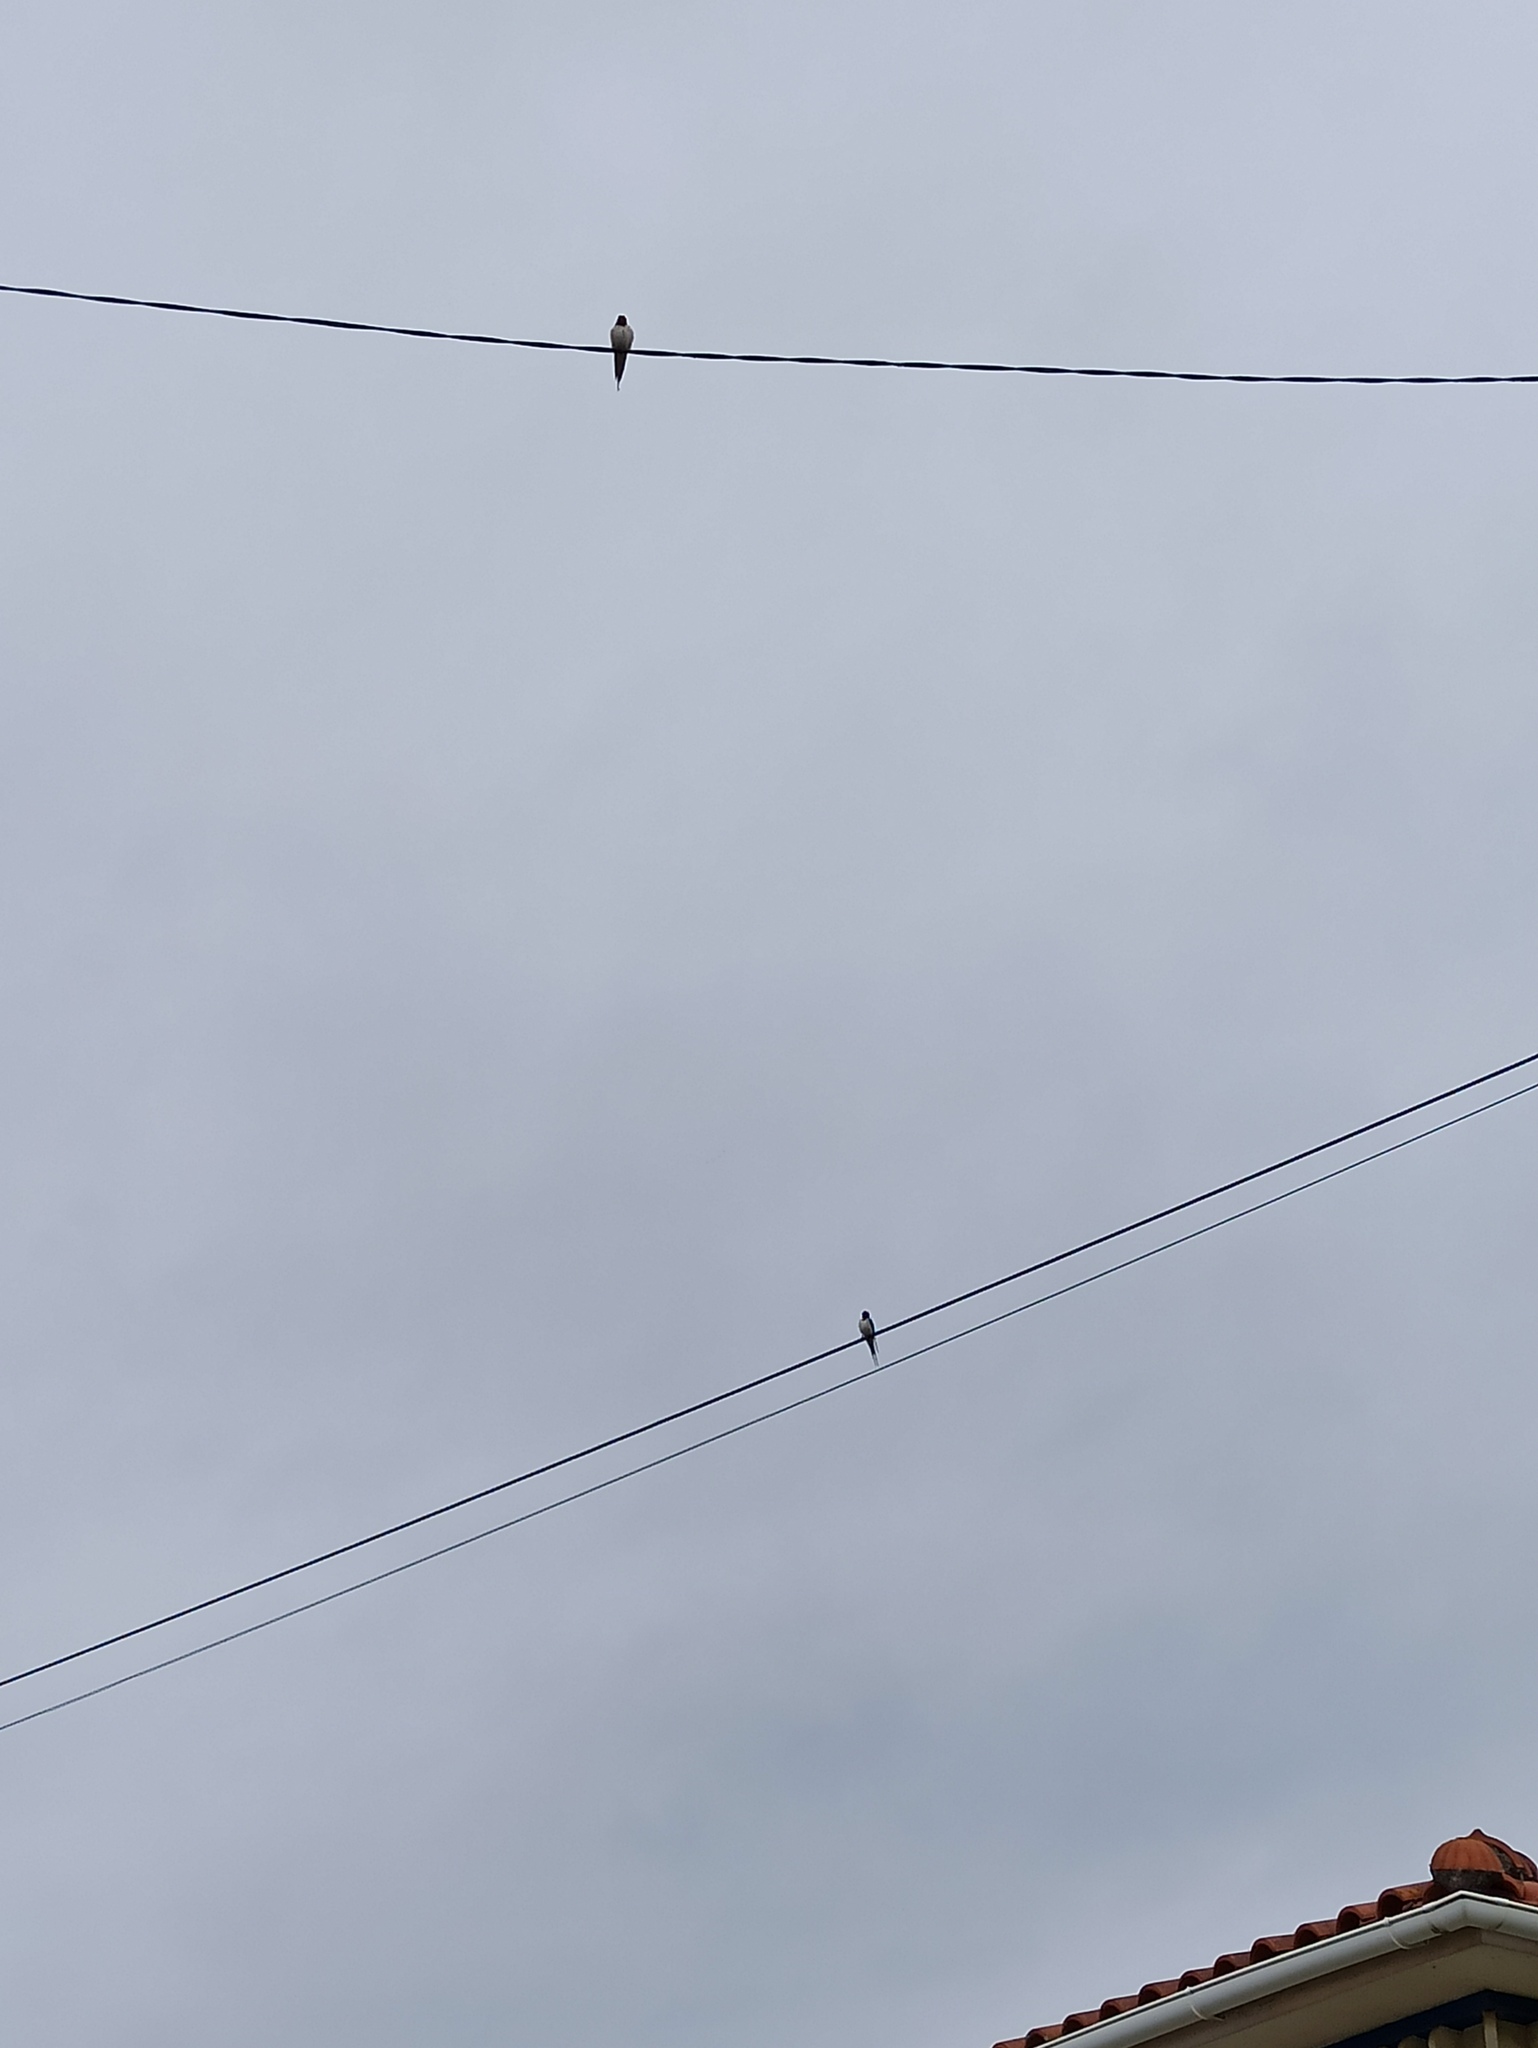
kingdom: Animalia
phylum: Chordata
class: Aves
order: Passeriformes
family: Hirundinidae
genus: Hirundo
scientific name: Hirundo rustica
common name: Barn swallow
